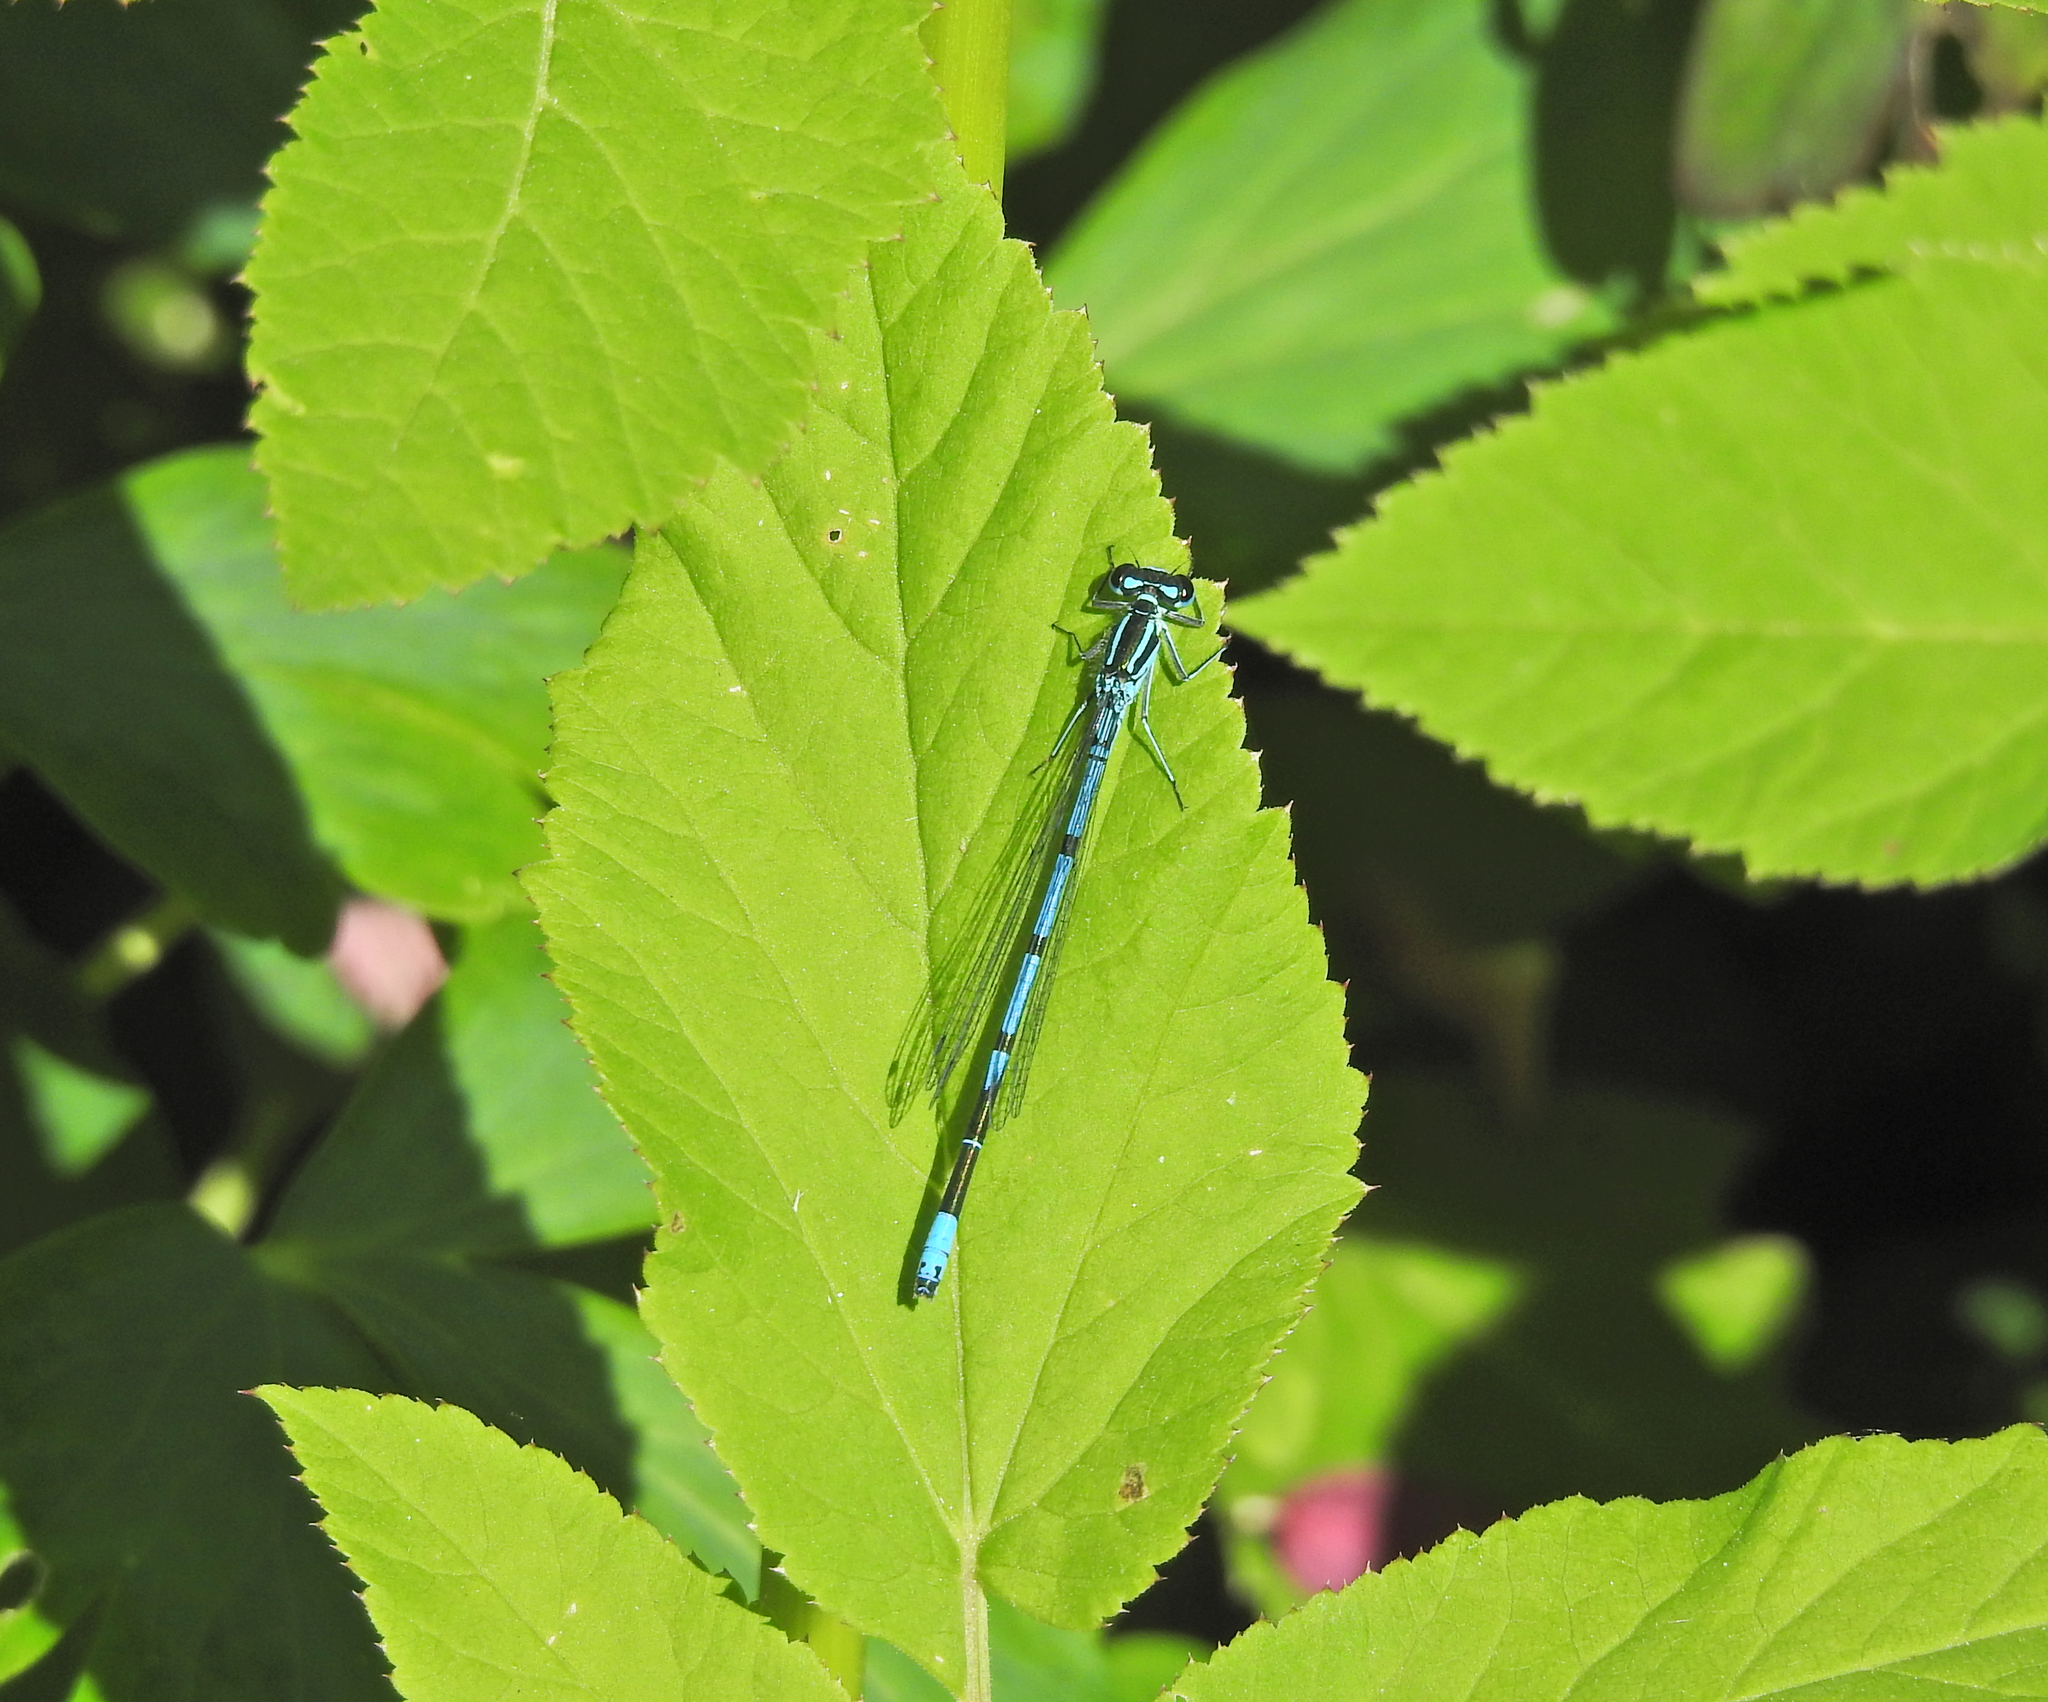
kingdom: Animalia
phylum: Arthropoda
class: Insecta
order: Odonata
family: Coenagrionidae
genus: Coenagrion
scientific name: Coenagrion puella
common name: Azure damselfly
